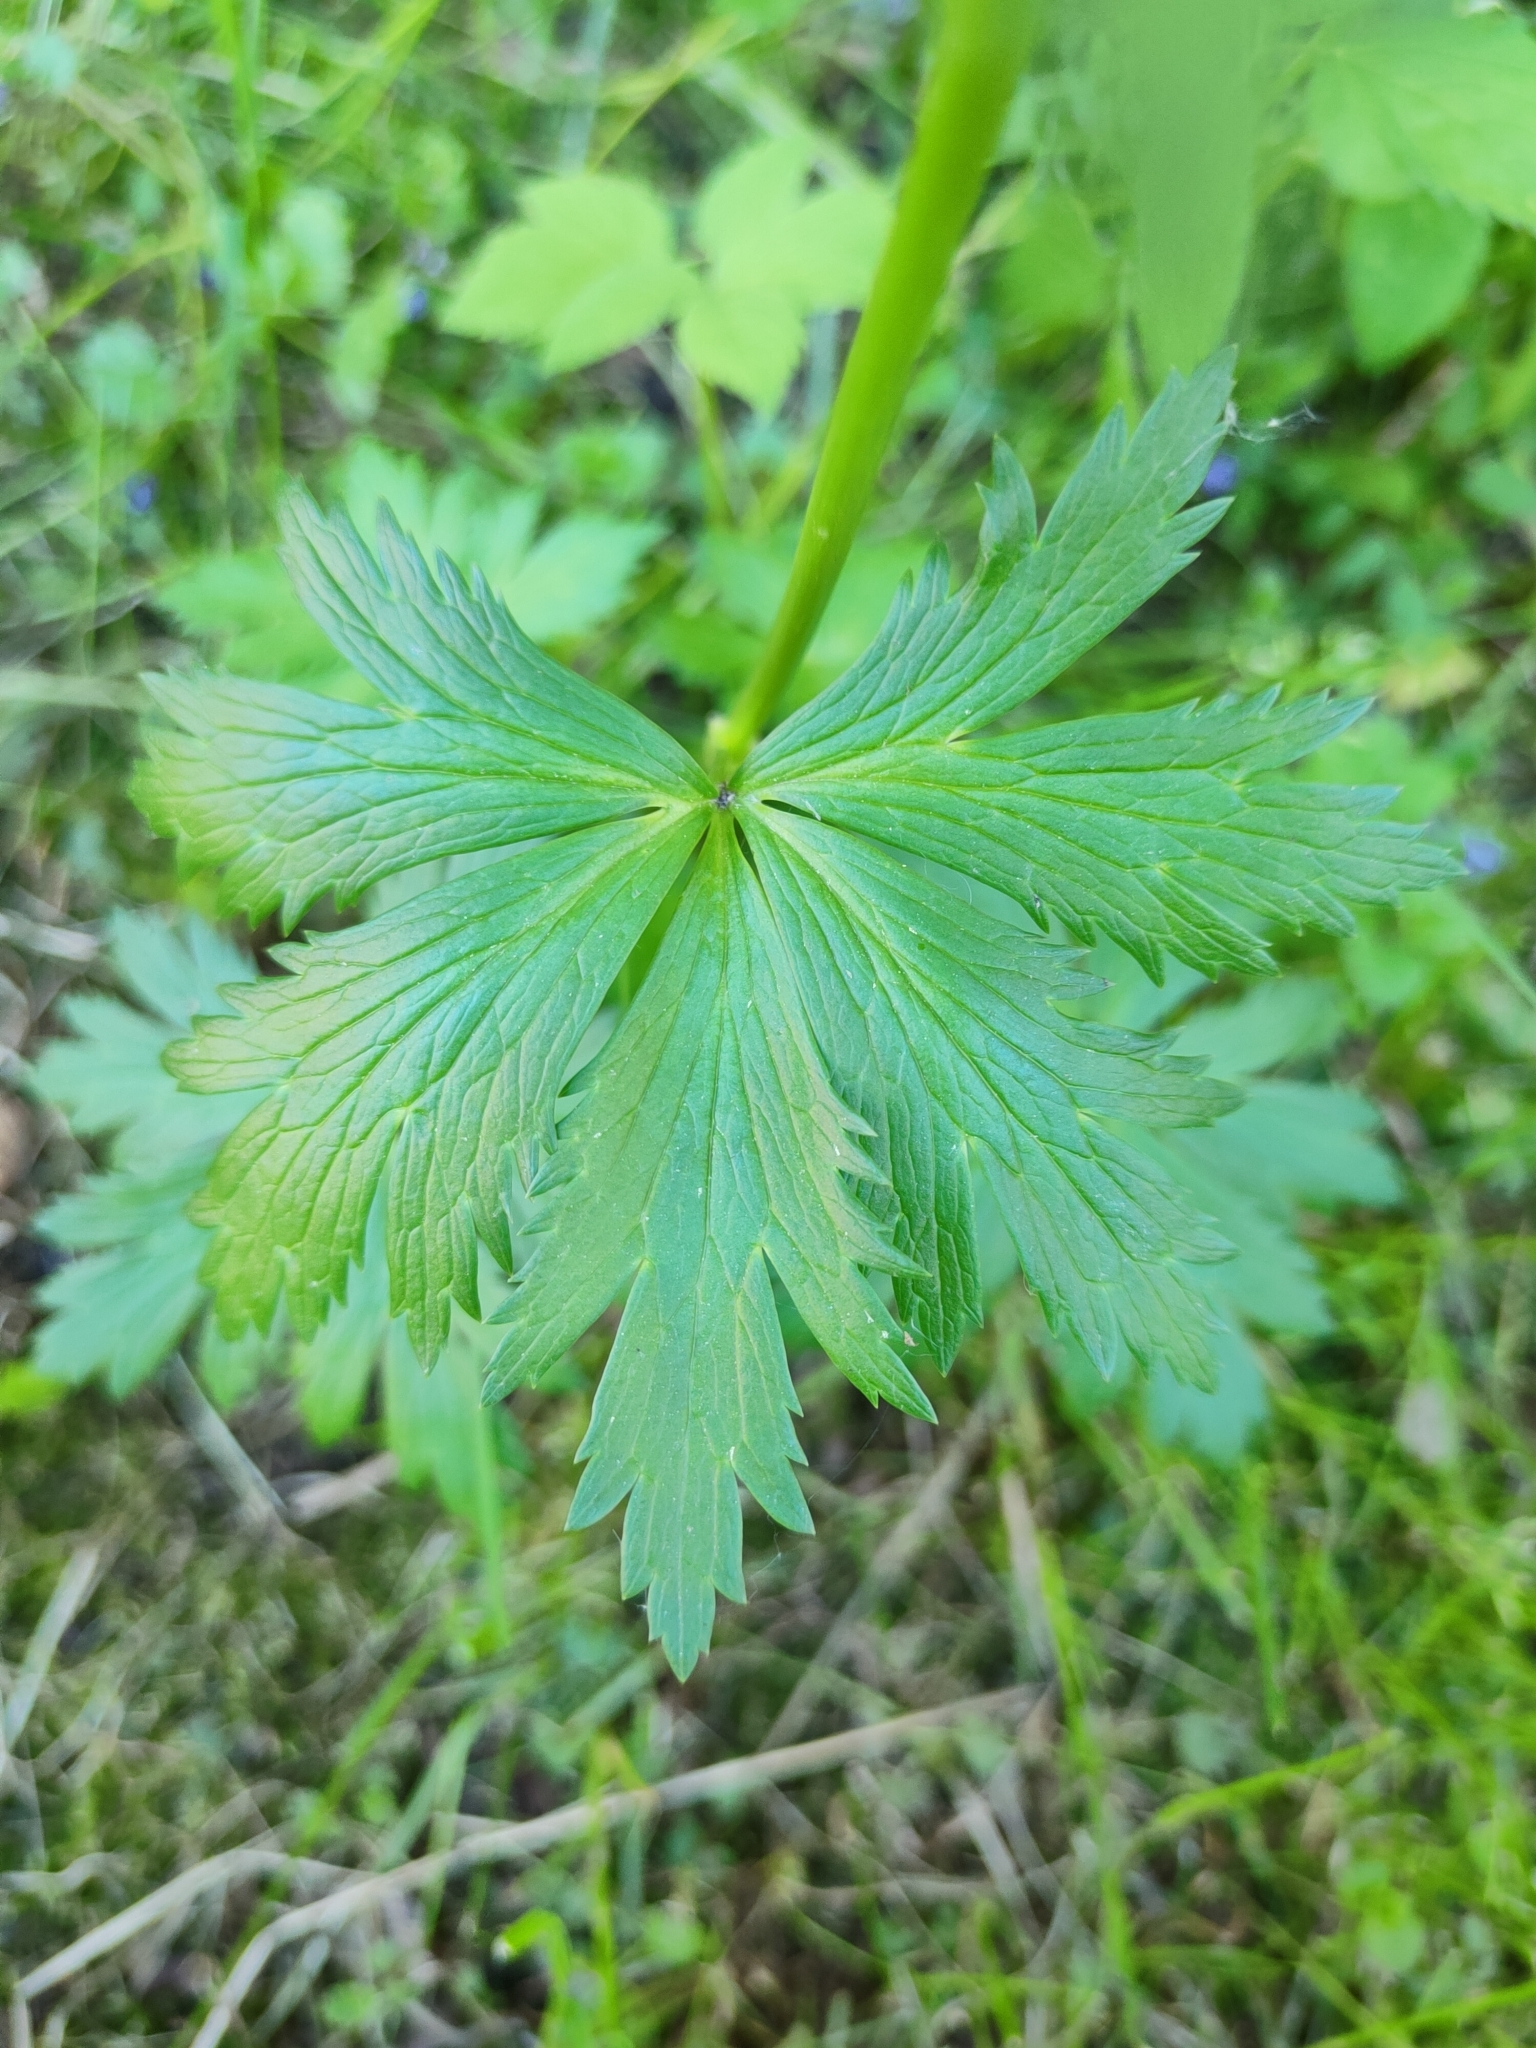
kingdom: Plantae
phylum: Tracheophyta
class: Magnoliopsida
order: Ranunculales
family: Ranunculaceae
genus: Trollius
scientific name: Trollius europaeus
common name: European globeflower
